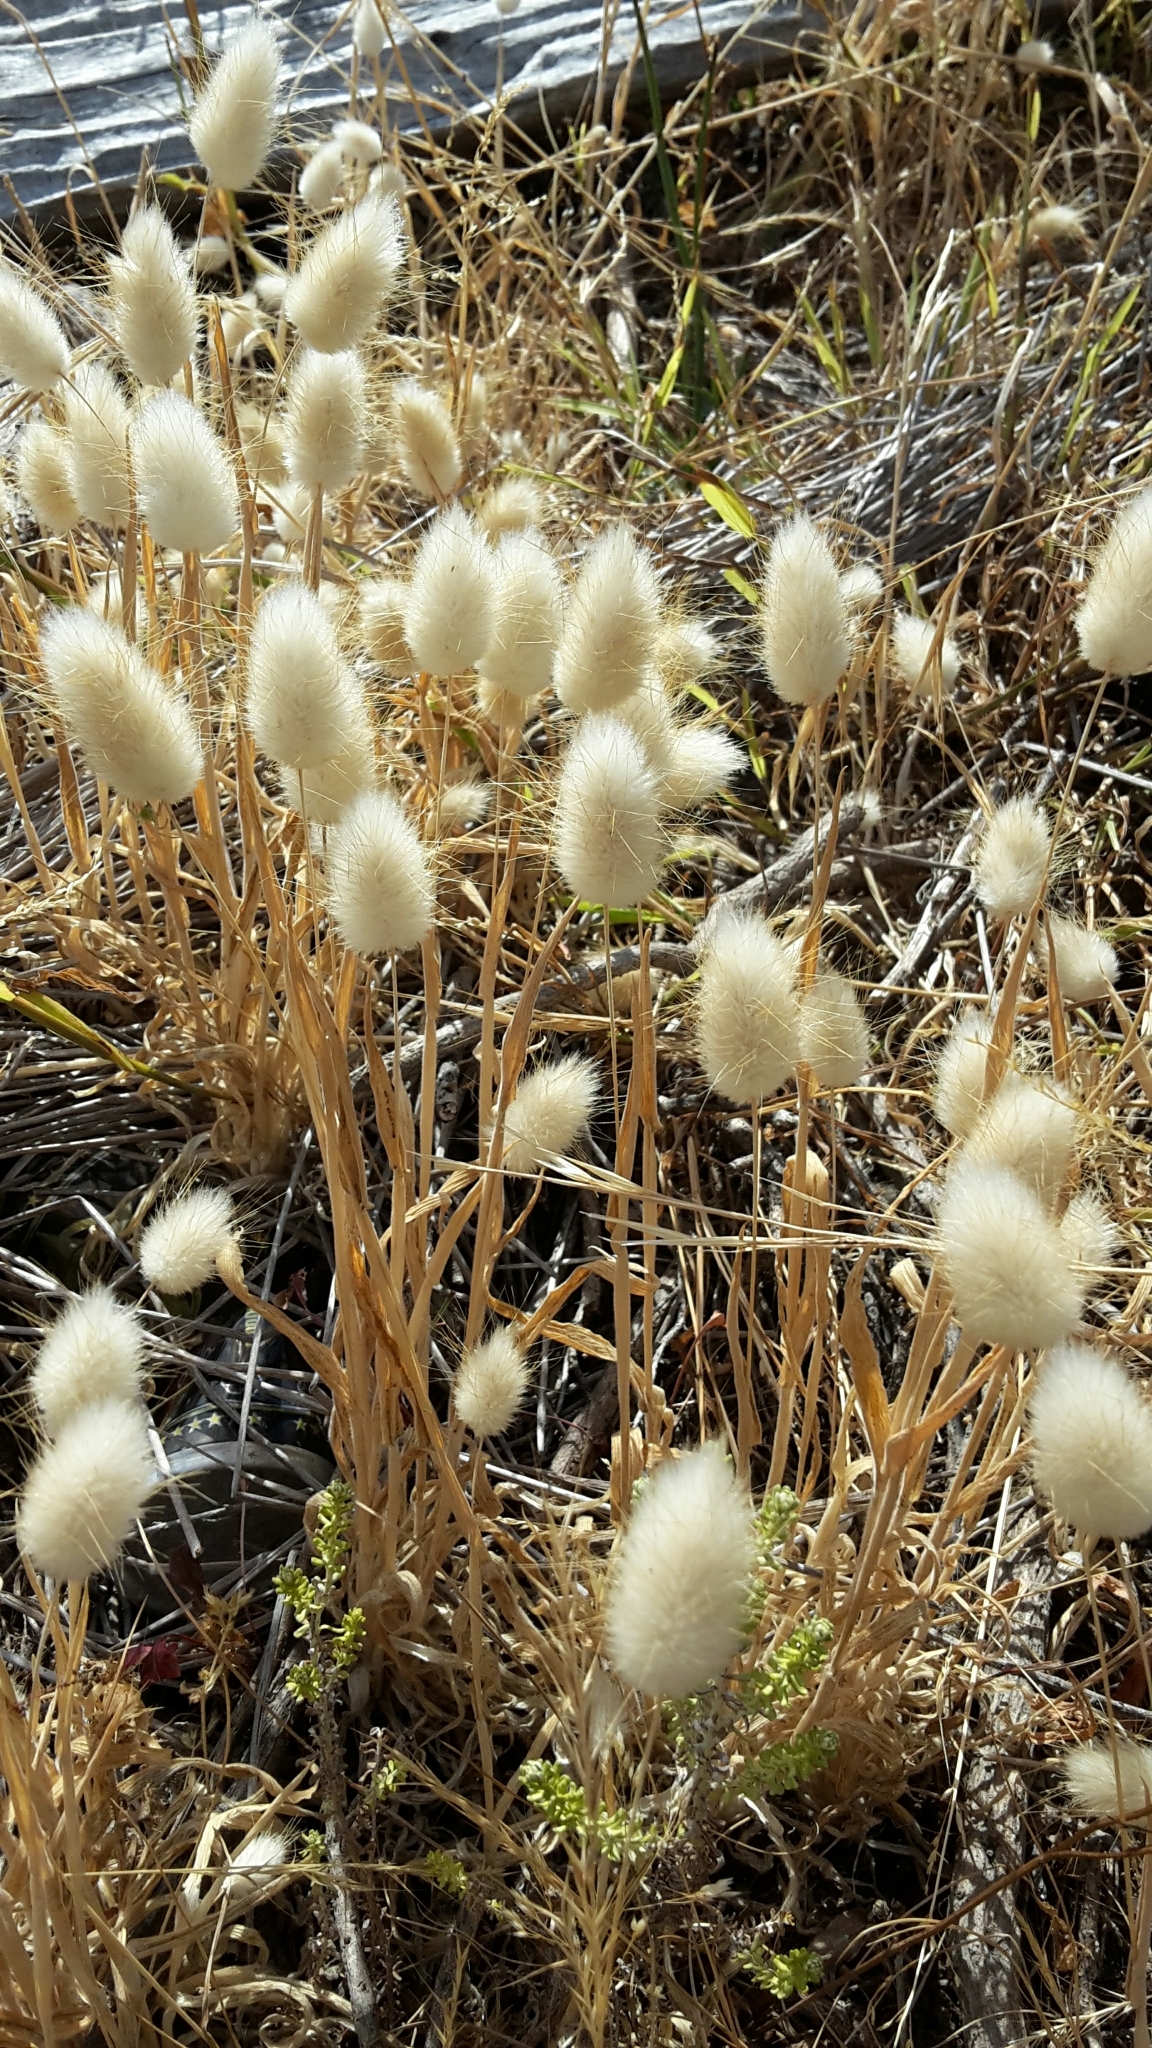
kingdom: Plantae
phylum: Tracheophyta
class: Liliopsida
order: Poales
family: Poaceae
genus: Lagurus
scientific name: Lagurus ovatus
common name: Hare's-tail
